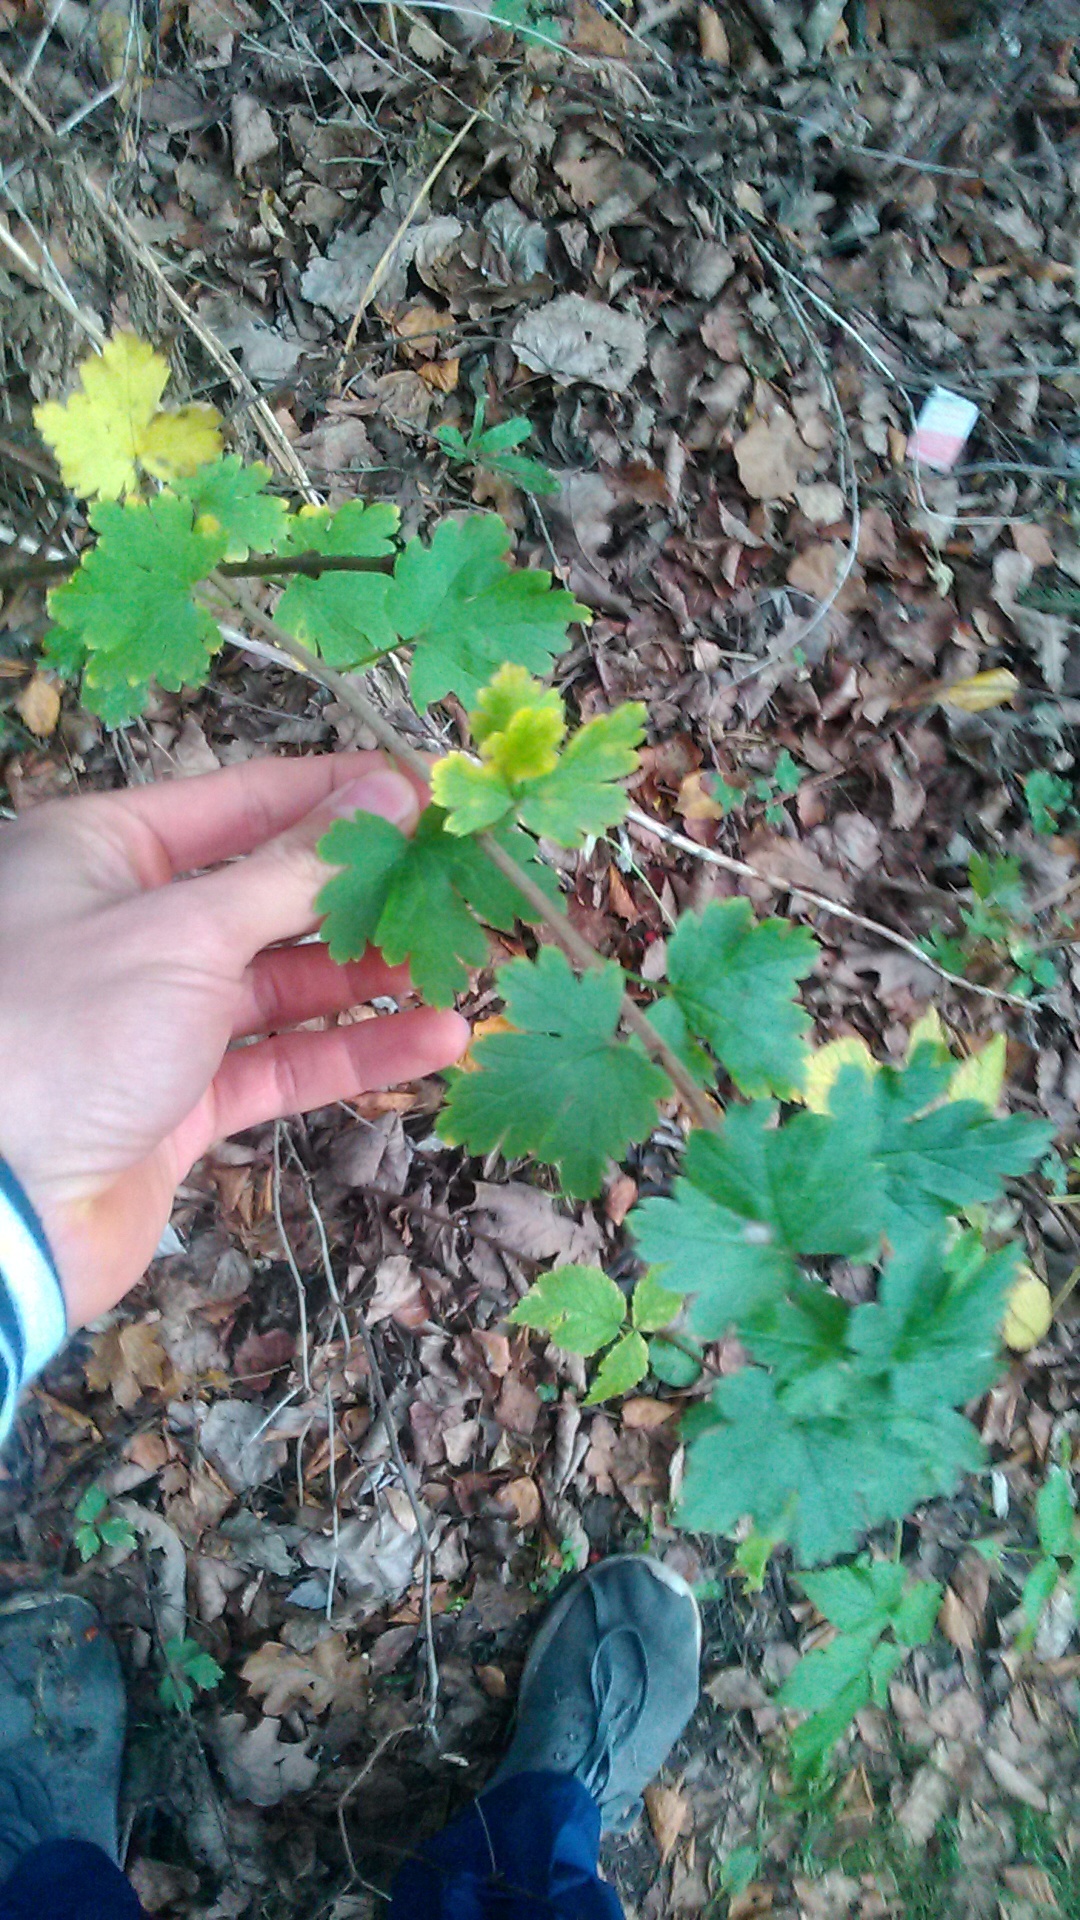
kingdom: Plantae
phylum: Tracheophyta
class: Magnoliopsida
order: Saxifragales
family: Grossulariaceae
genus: Ribes
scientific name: Ribes uva-crispa
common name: Gooseberry
